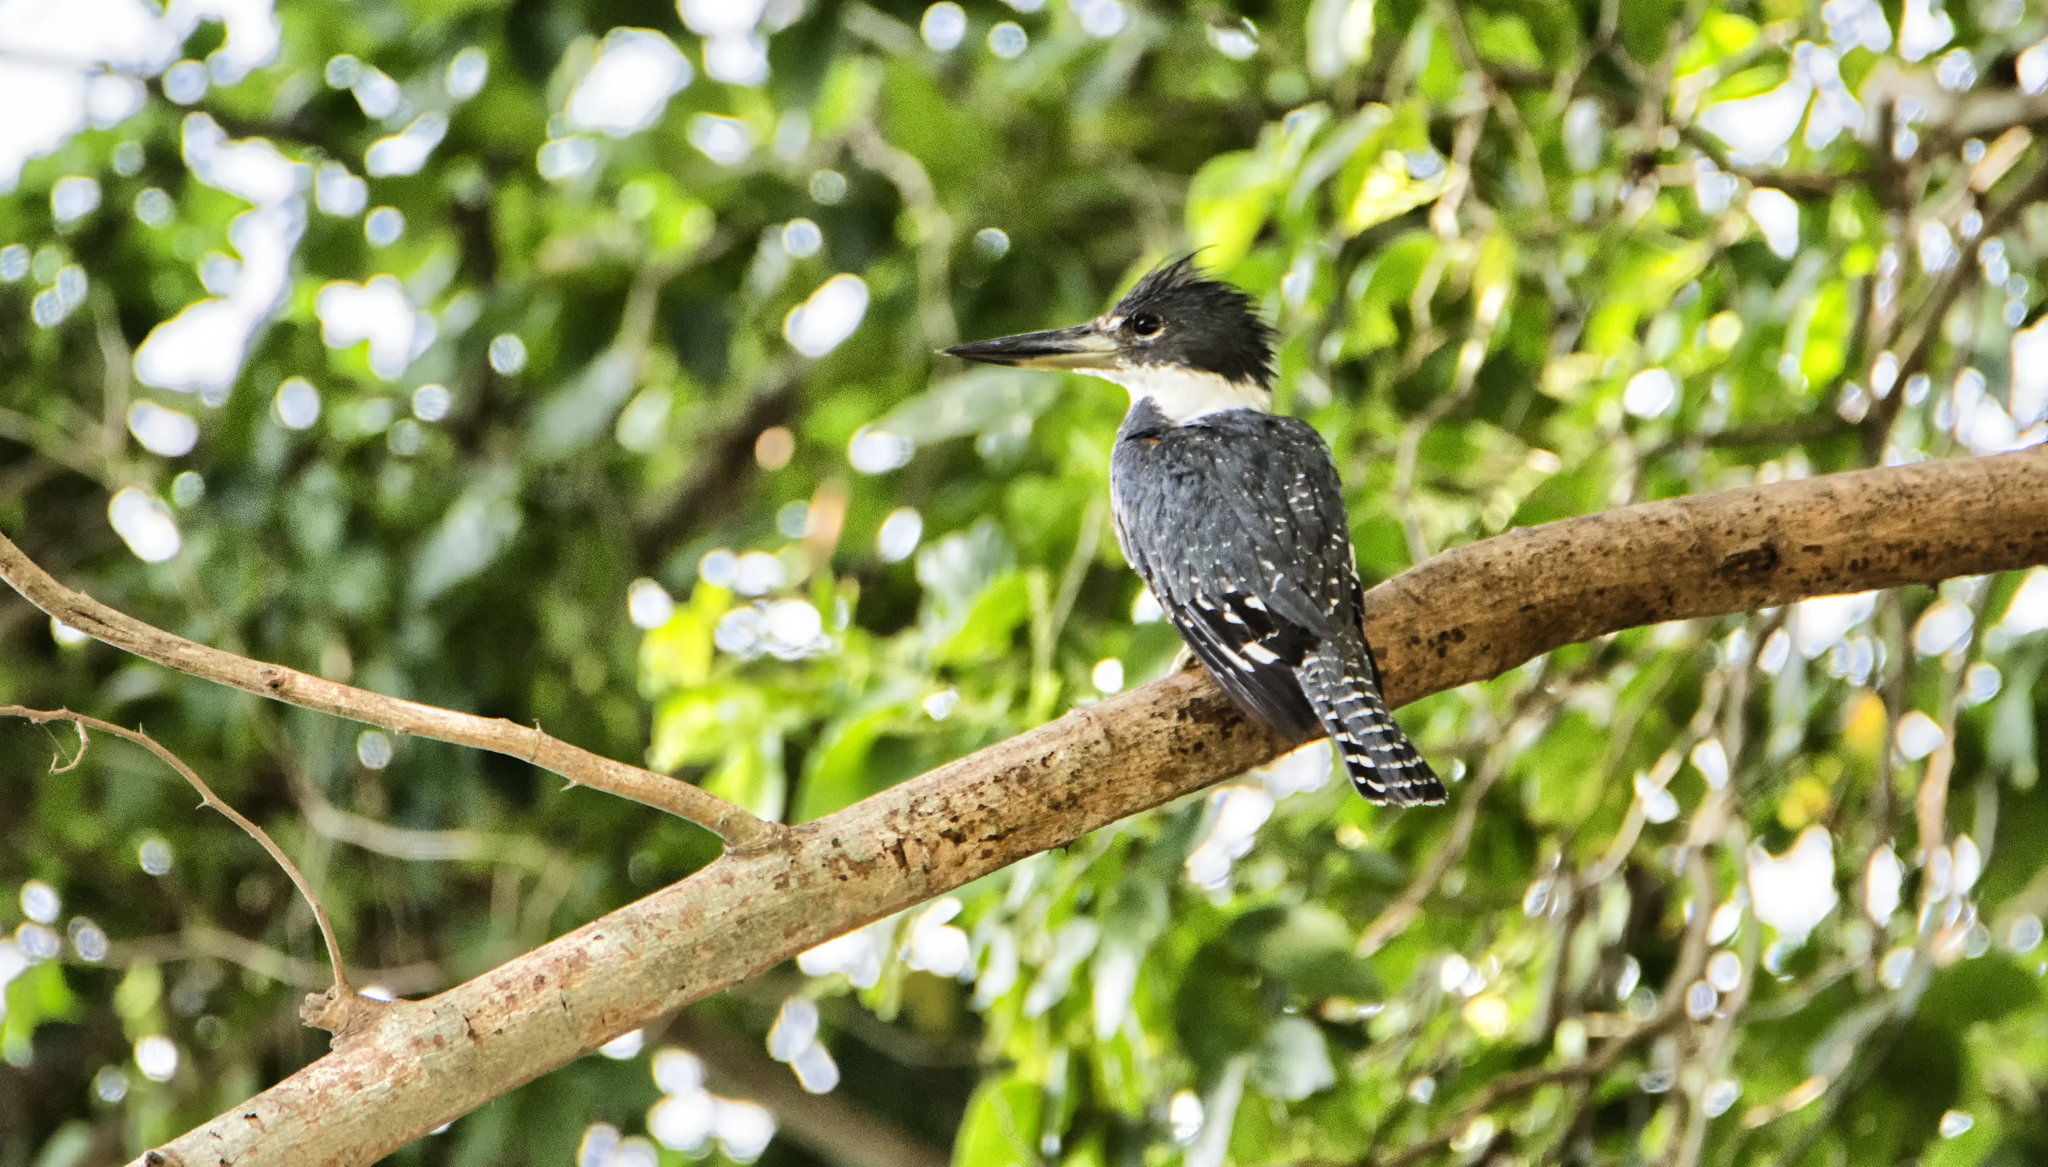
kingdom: Animalia
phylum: Chordata
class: Aves
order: Coraciiformes
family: Alcedinidae
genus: Megaceryle
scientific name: Megaceryle torquata
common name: Ringed kingfisher
